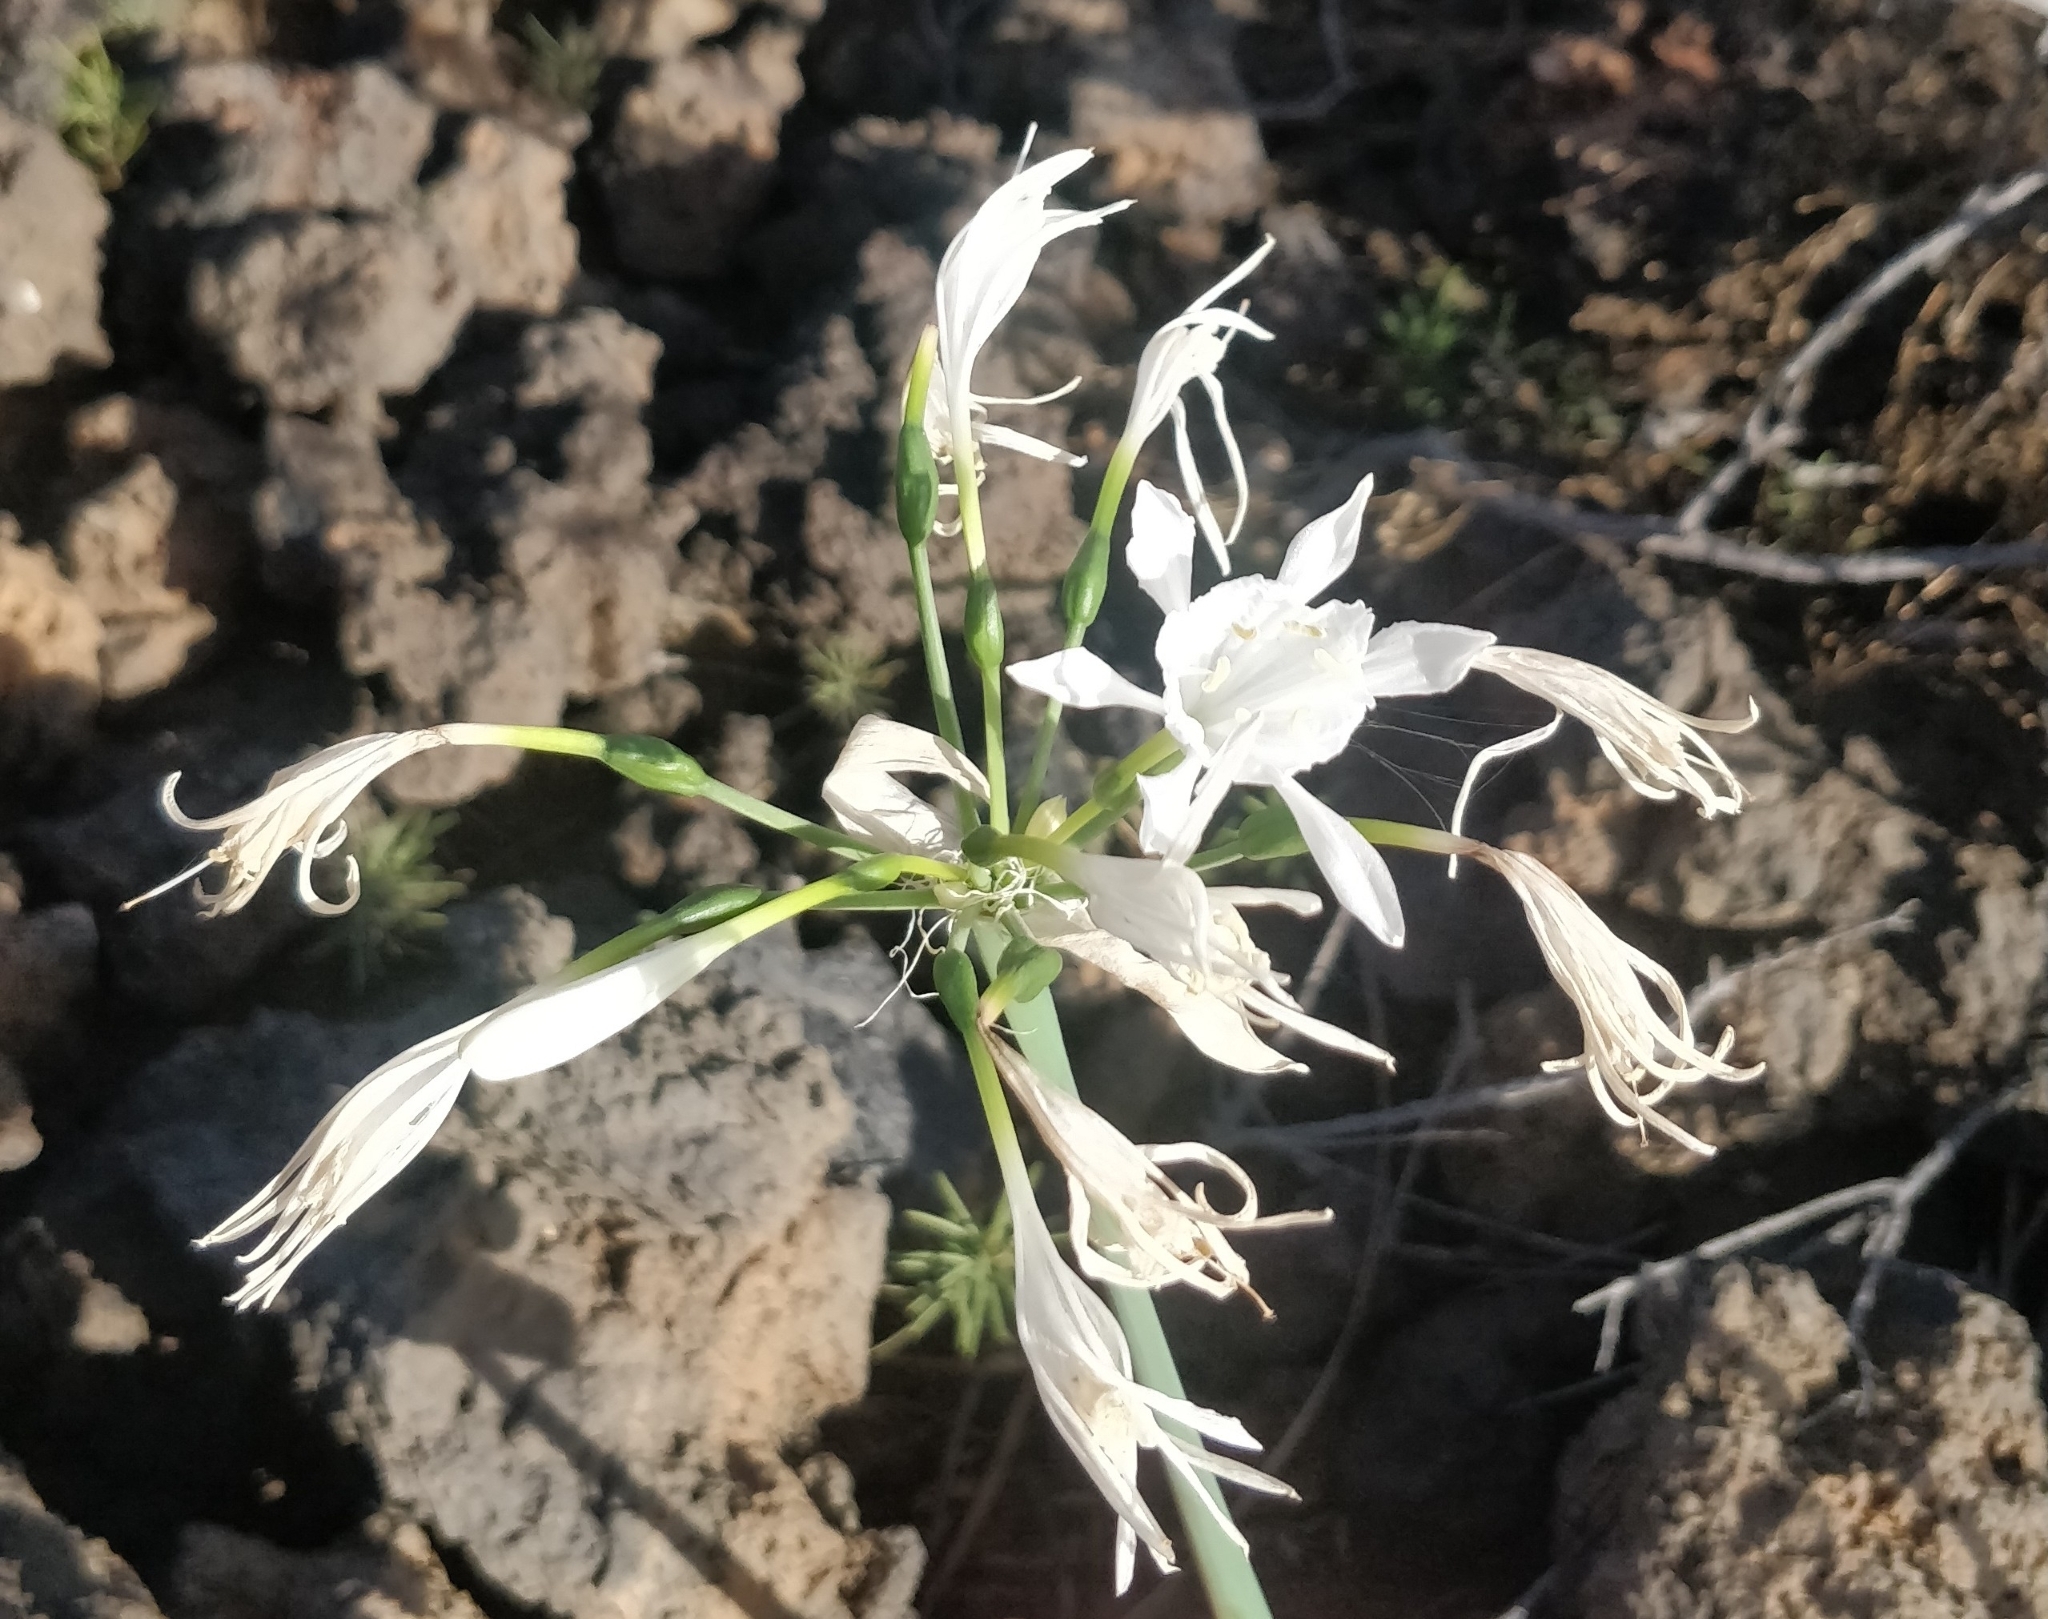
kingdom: Plantae
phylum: Tracheophyta
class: Liliopsida
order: Asparagales
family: Amaryllidaceae
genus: Pancratium
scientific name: Pancratium canariense
